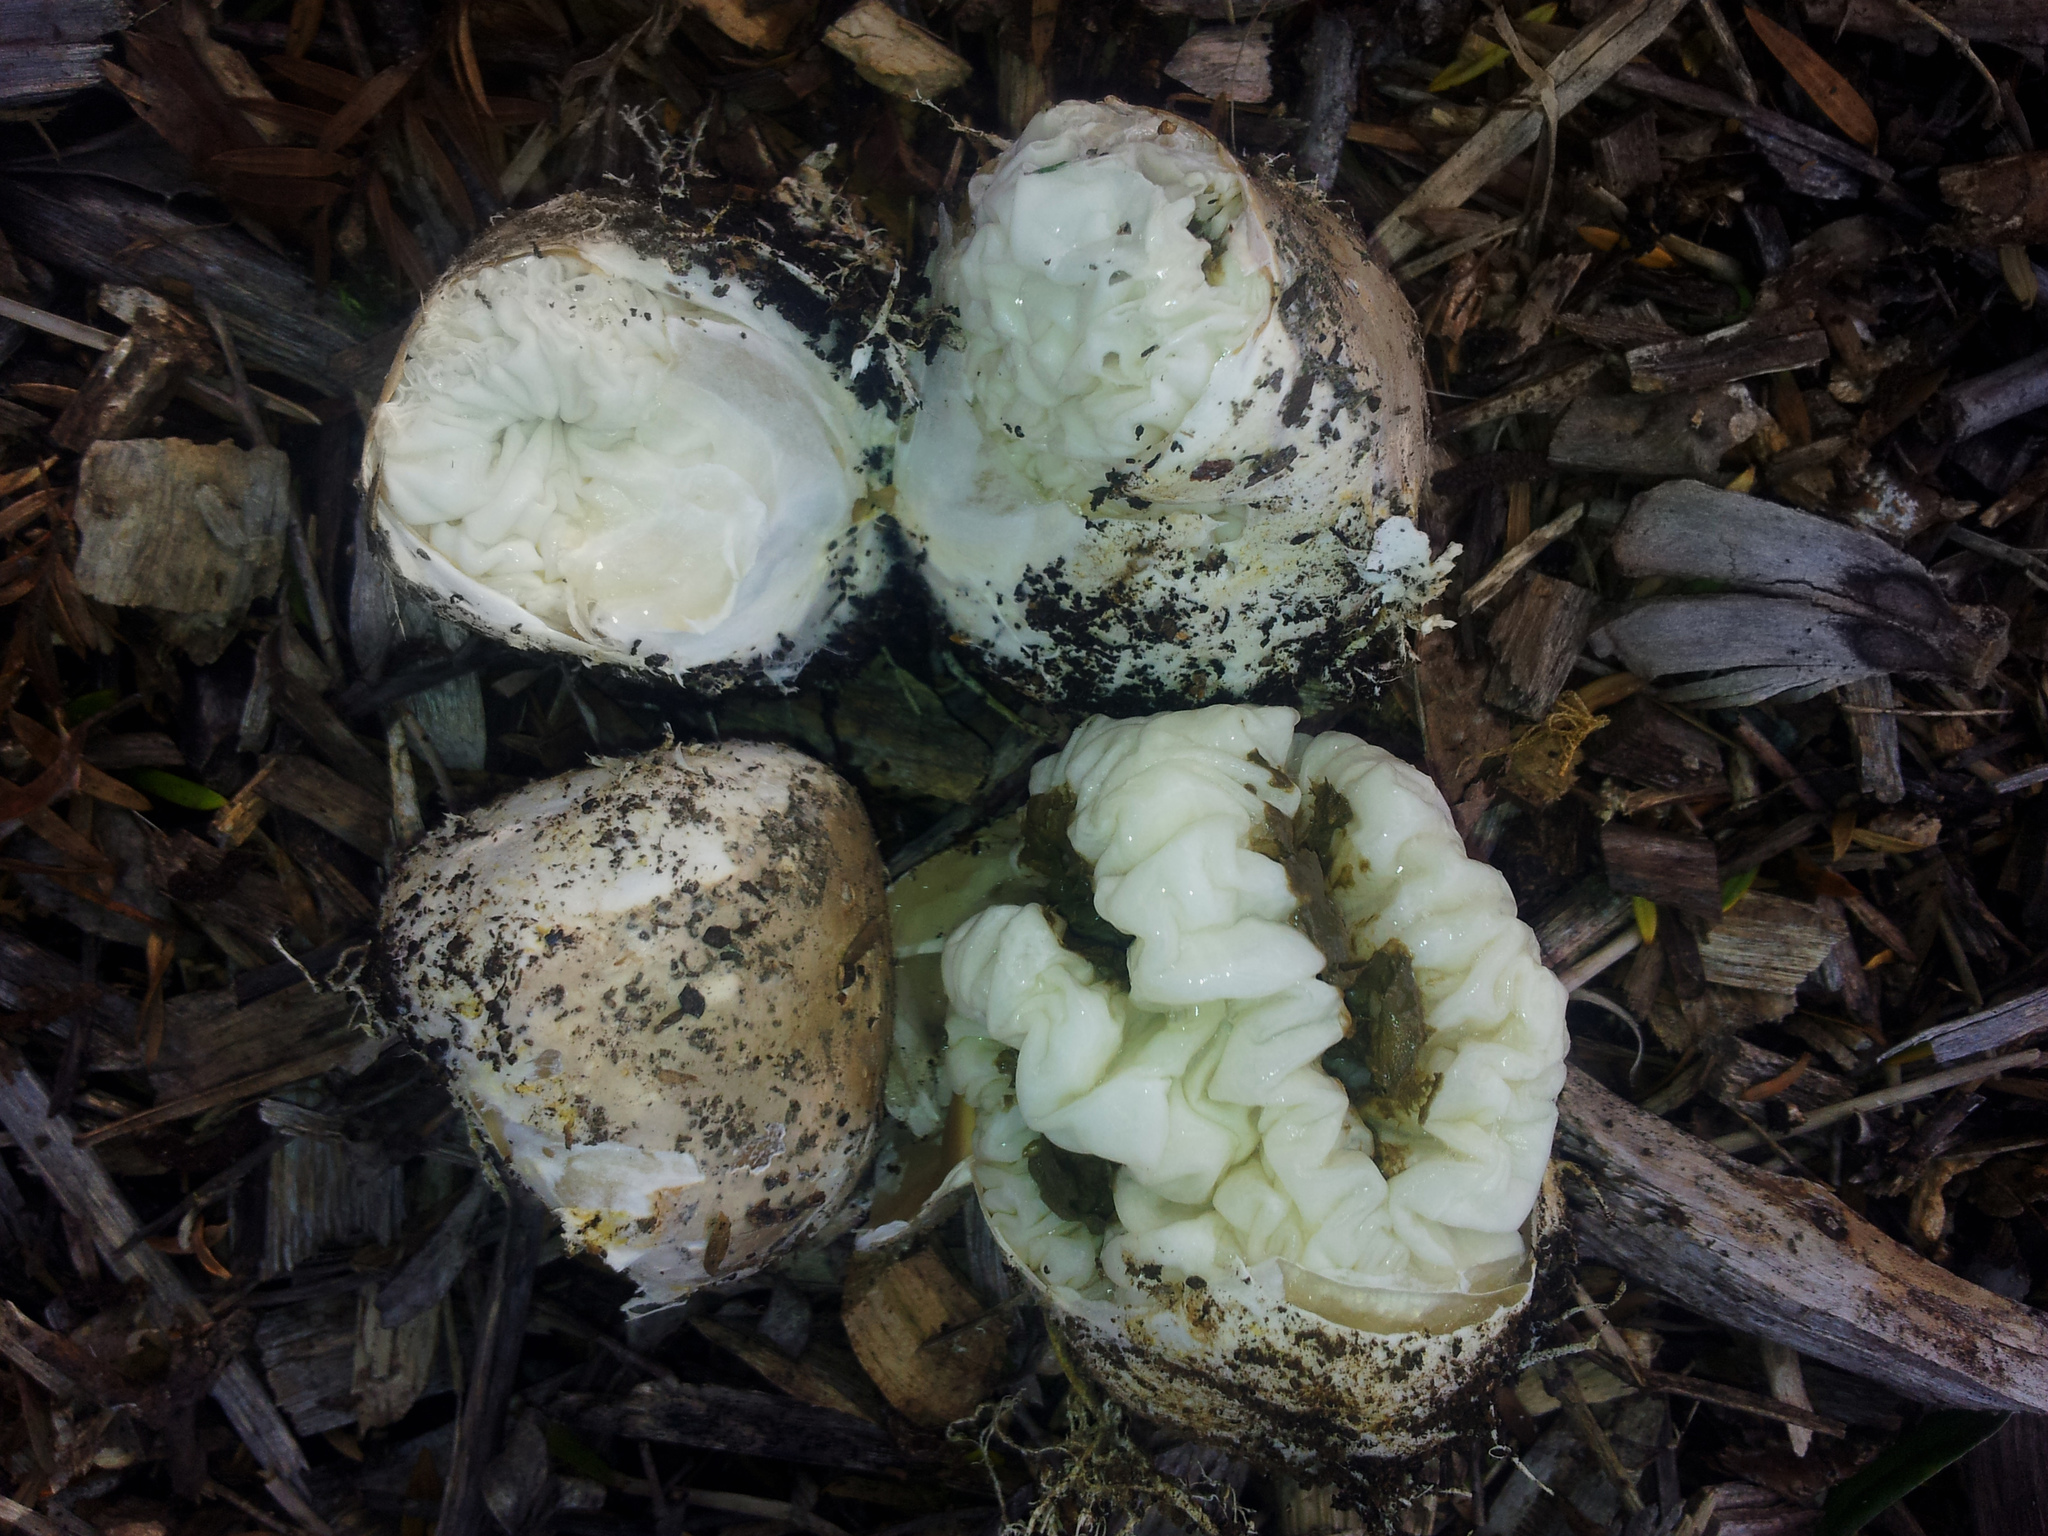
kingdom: Fungi
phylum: Basidiomycota
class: Agaricomycetes
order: Phallales
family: Phallaceae
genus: Ileodictyon
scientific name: Ileodictyon cibarium
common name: Basket fungus
